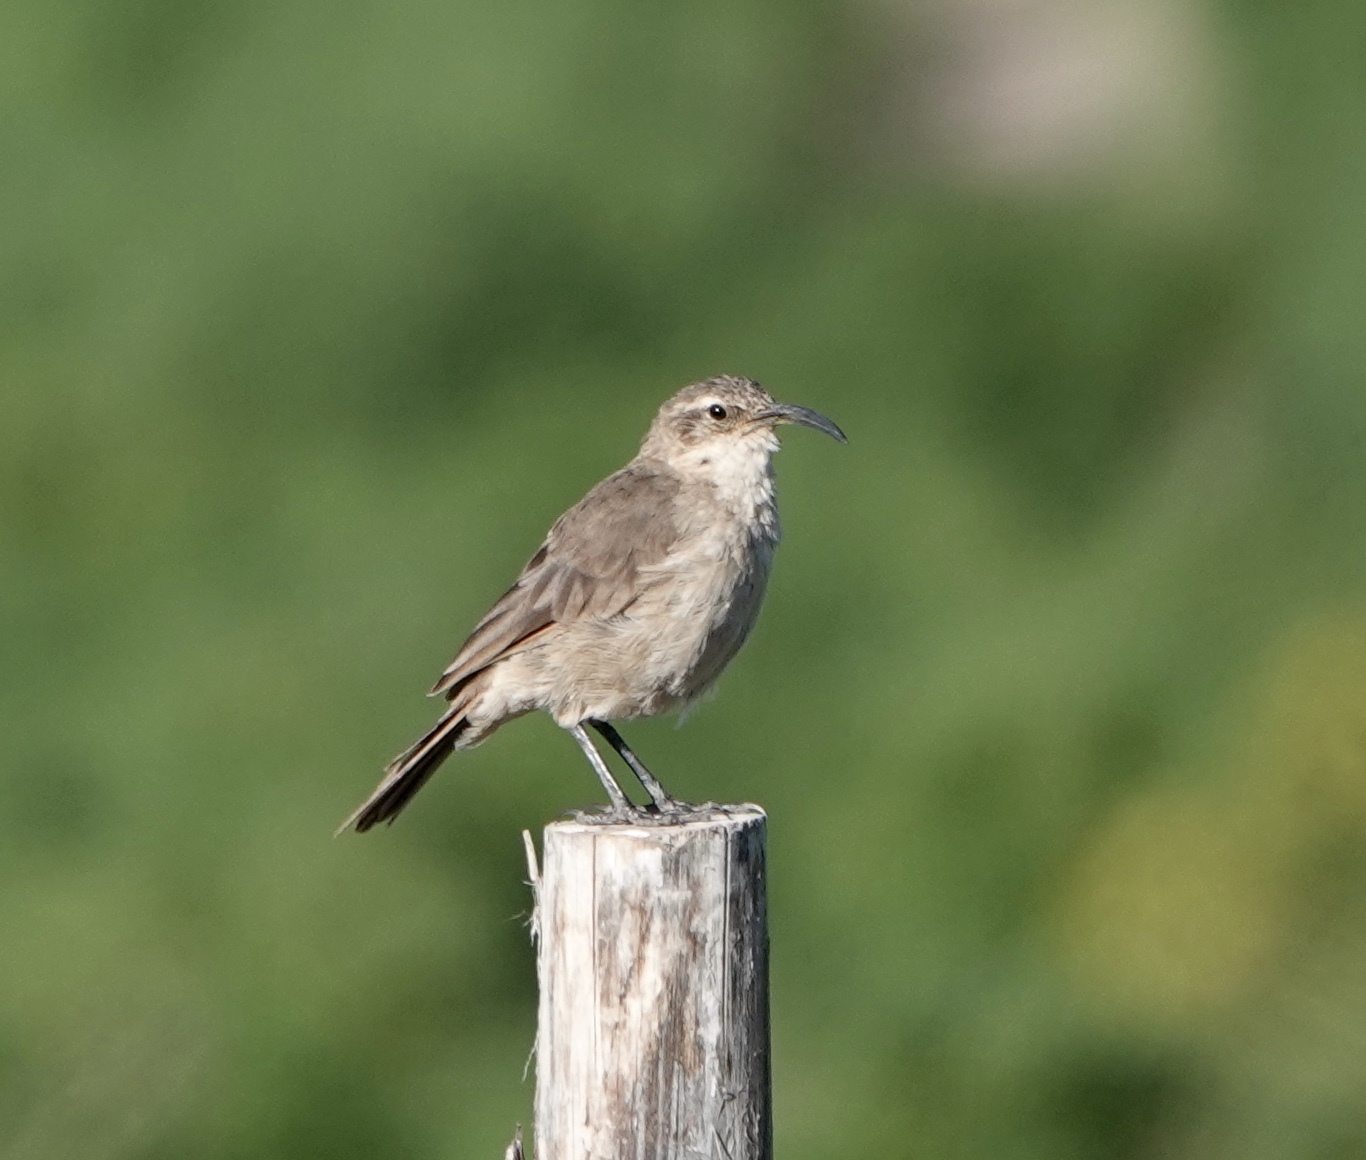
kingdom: Animalia
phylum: Chordata
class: Aves
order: Passeriformes
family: Furnariidae
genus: Upucerthia
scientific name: Upucerthia validirostris
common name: Buff-breasted earthcreeper
